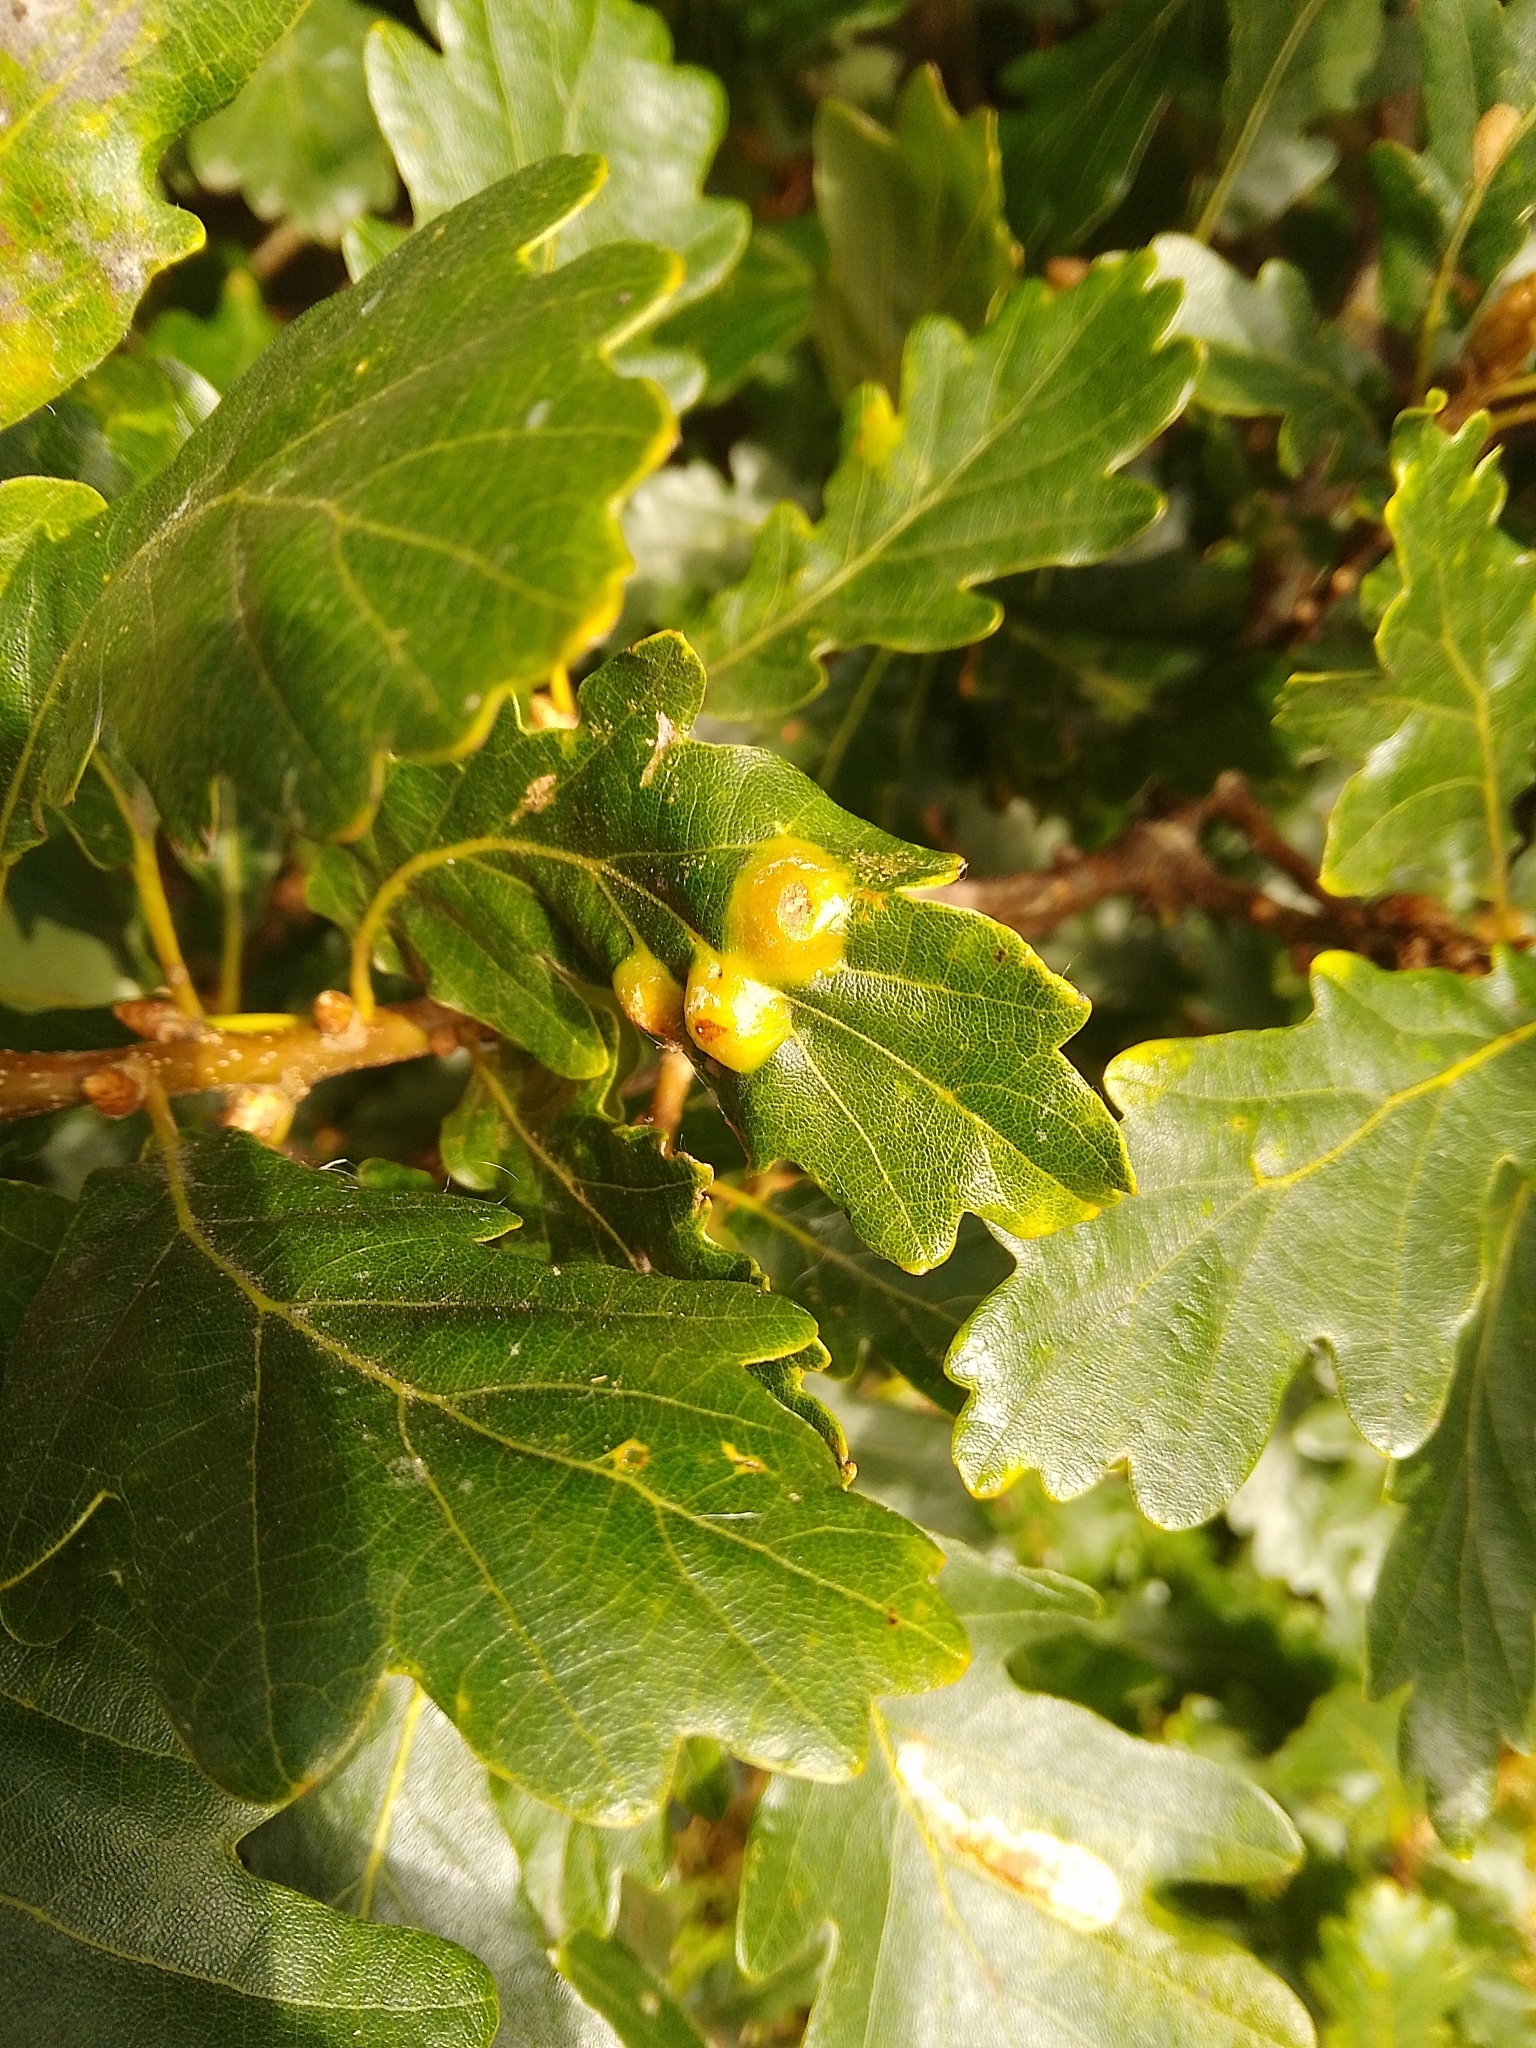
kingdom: Animalia
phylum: Arthropoda
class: Insecta
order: Hymenoptera
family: Cynipidae
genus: Andricus
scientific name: Andricus curvator
